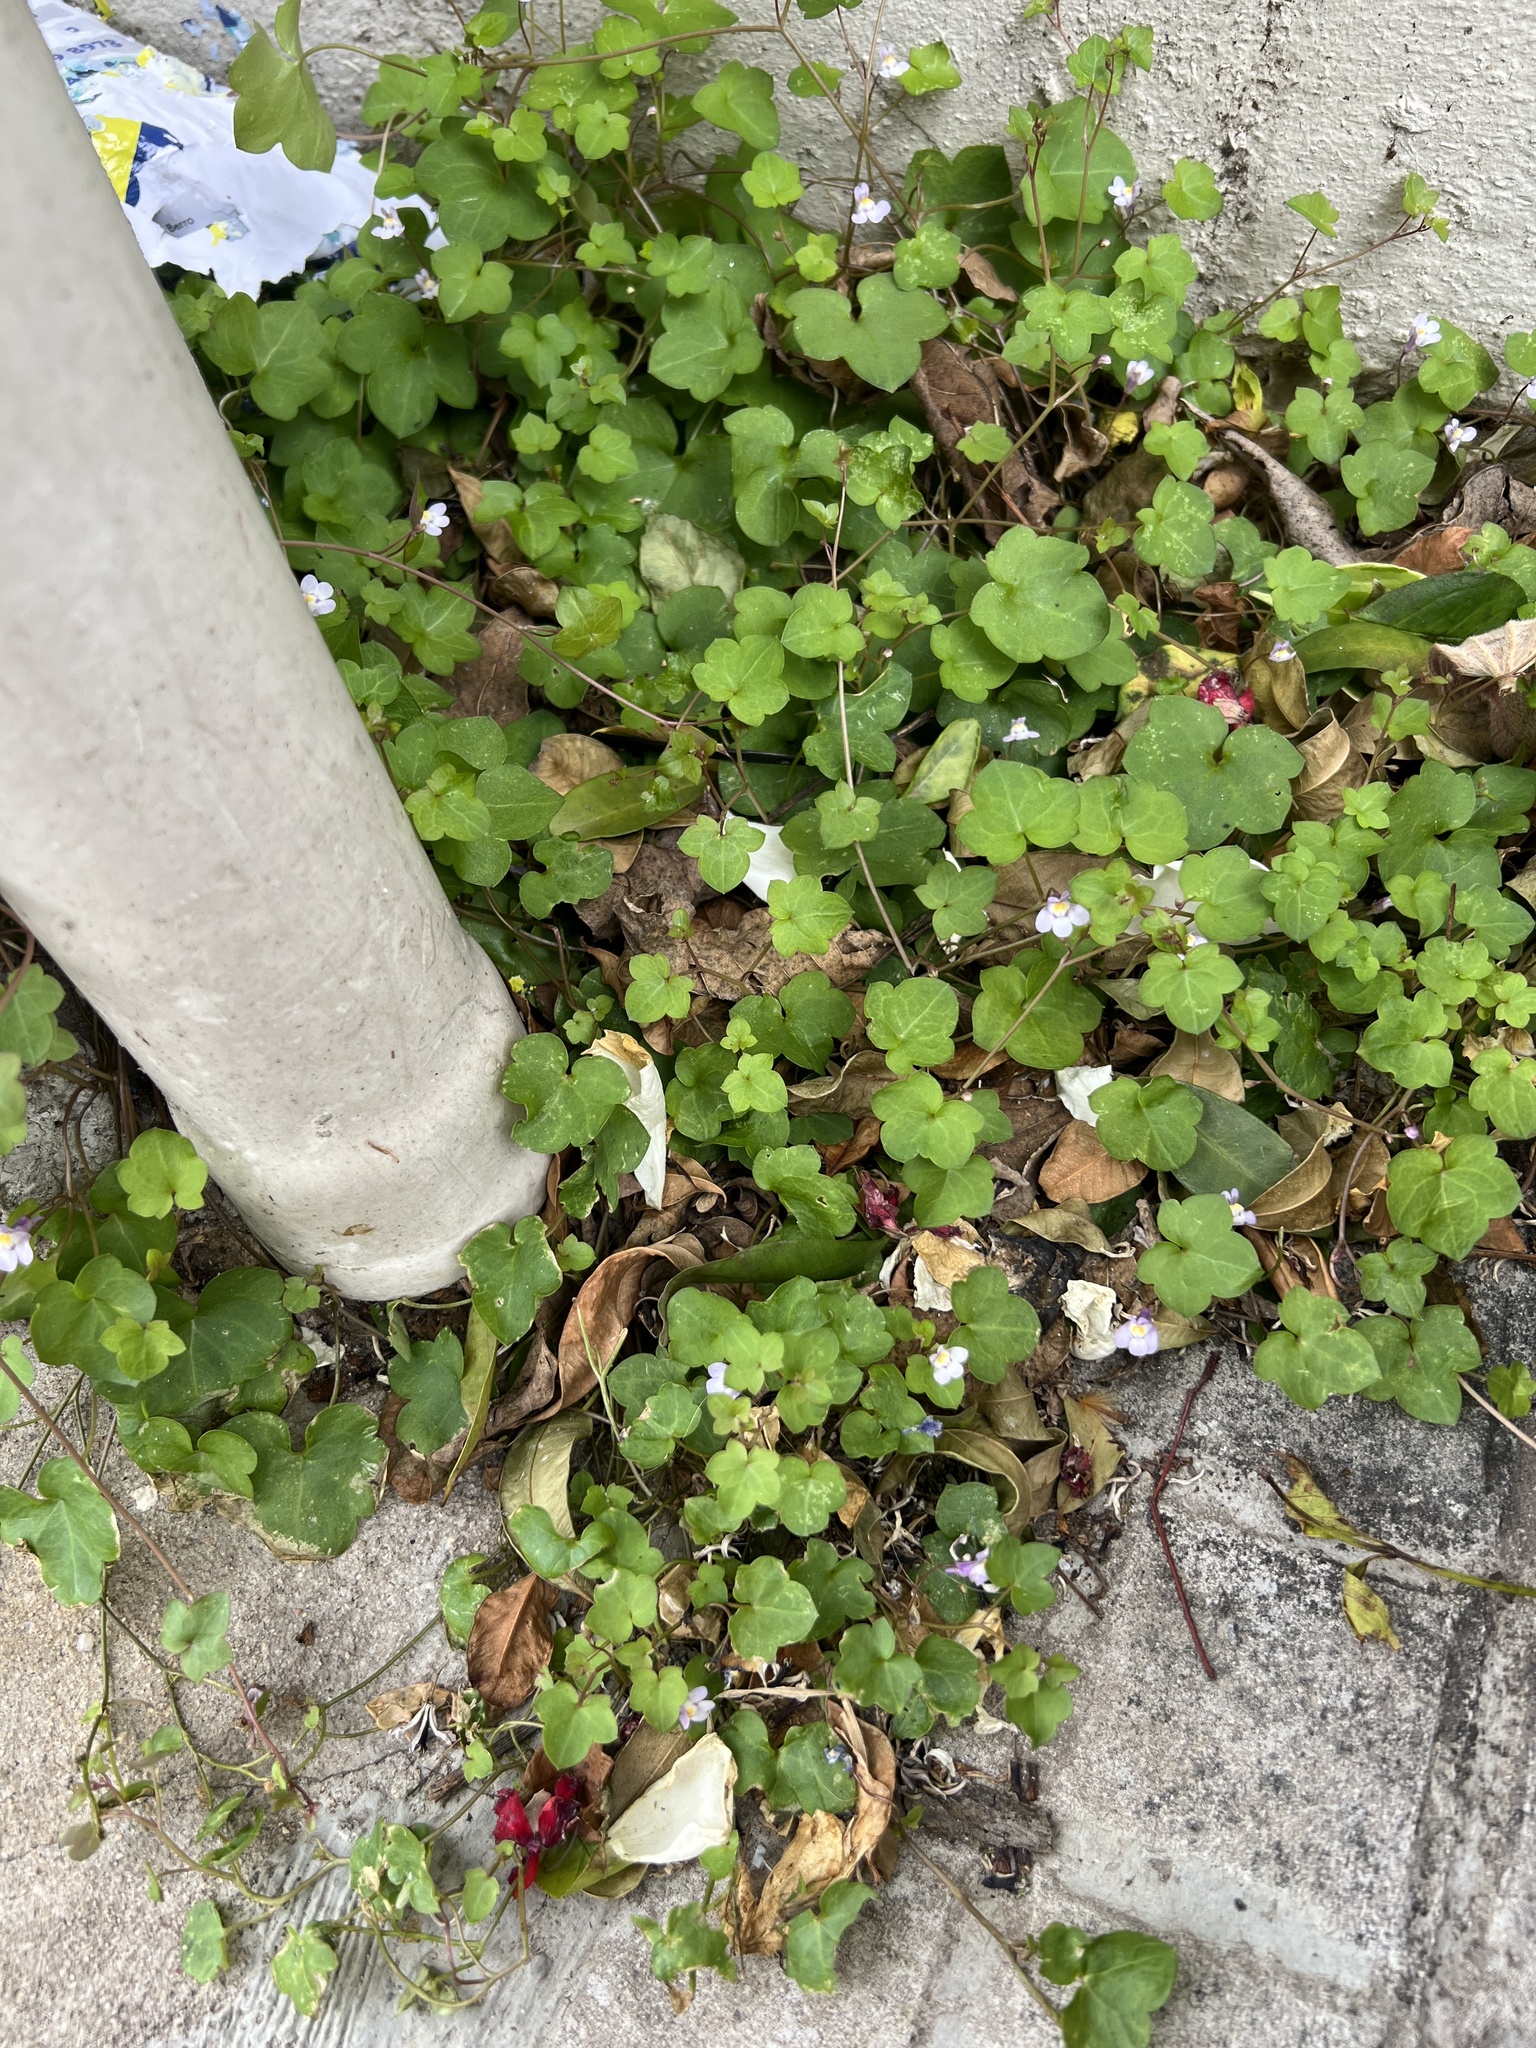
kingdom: Plantae
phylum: Tracheophyta
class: Magnoliopsida
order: Lamiales
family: Plantaginaceae
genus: Cymbalaria
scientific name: Cymbalaria muralis
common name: Ivy-leaved toadflax
